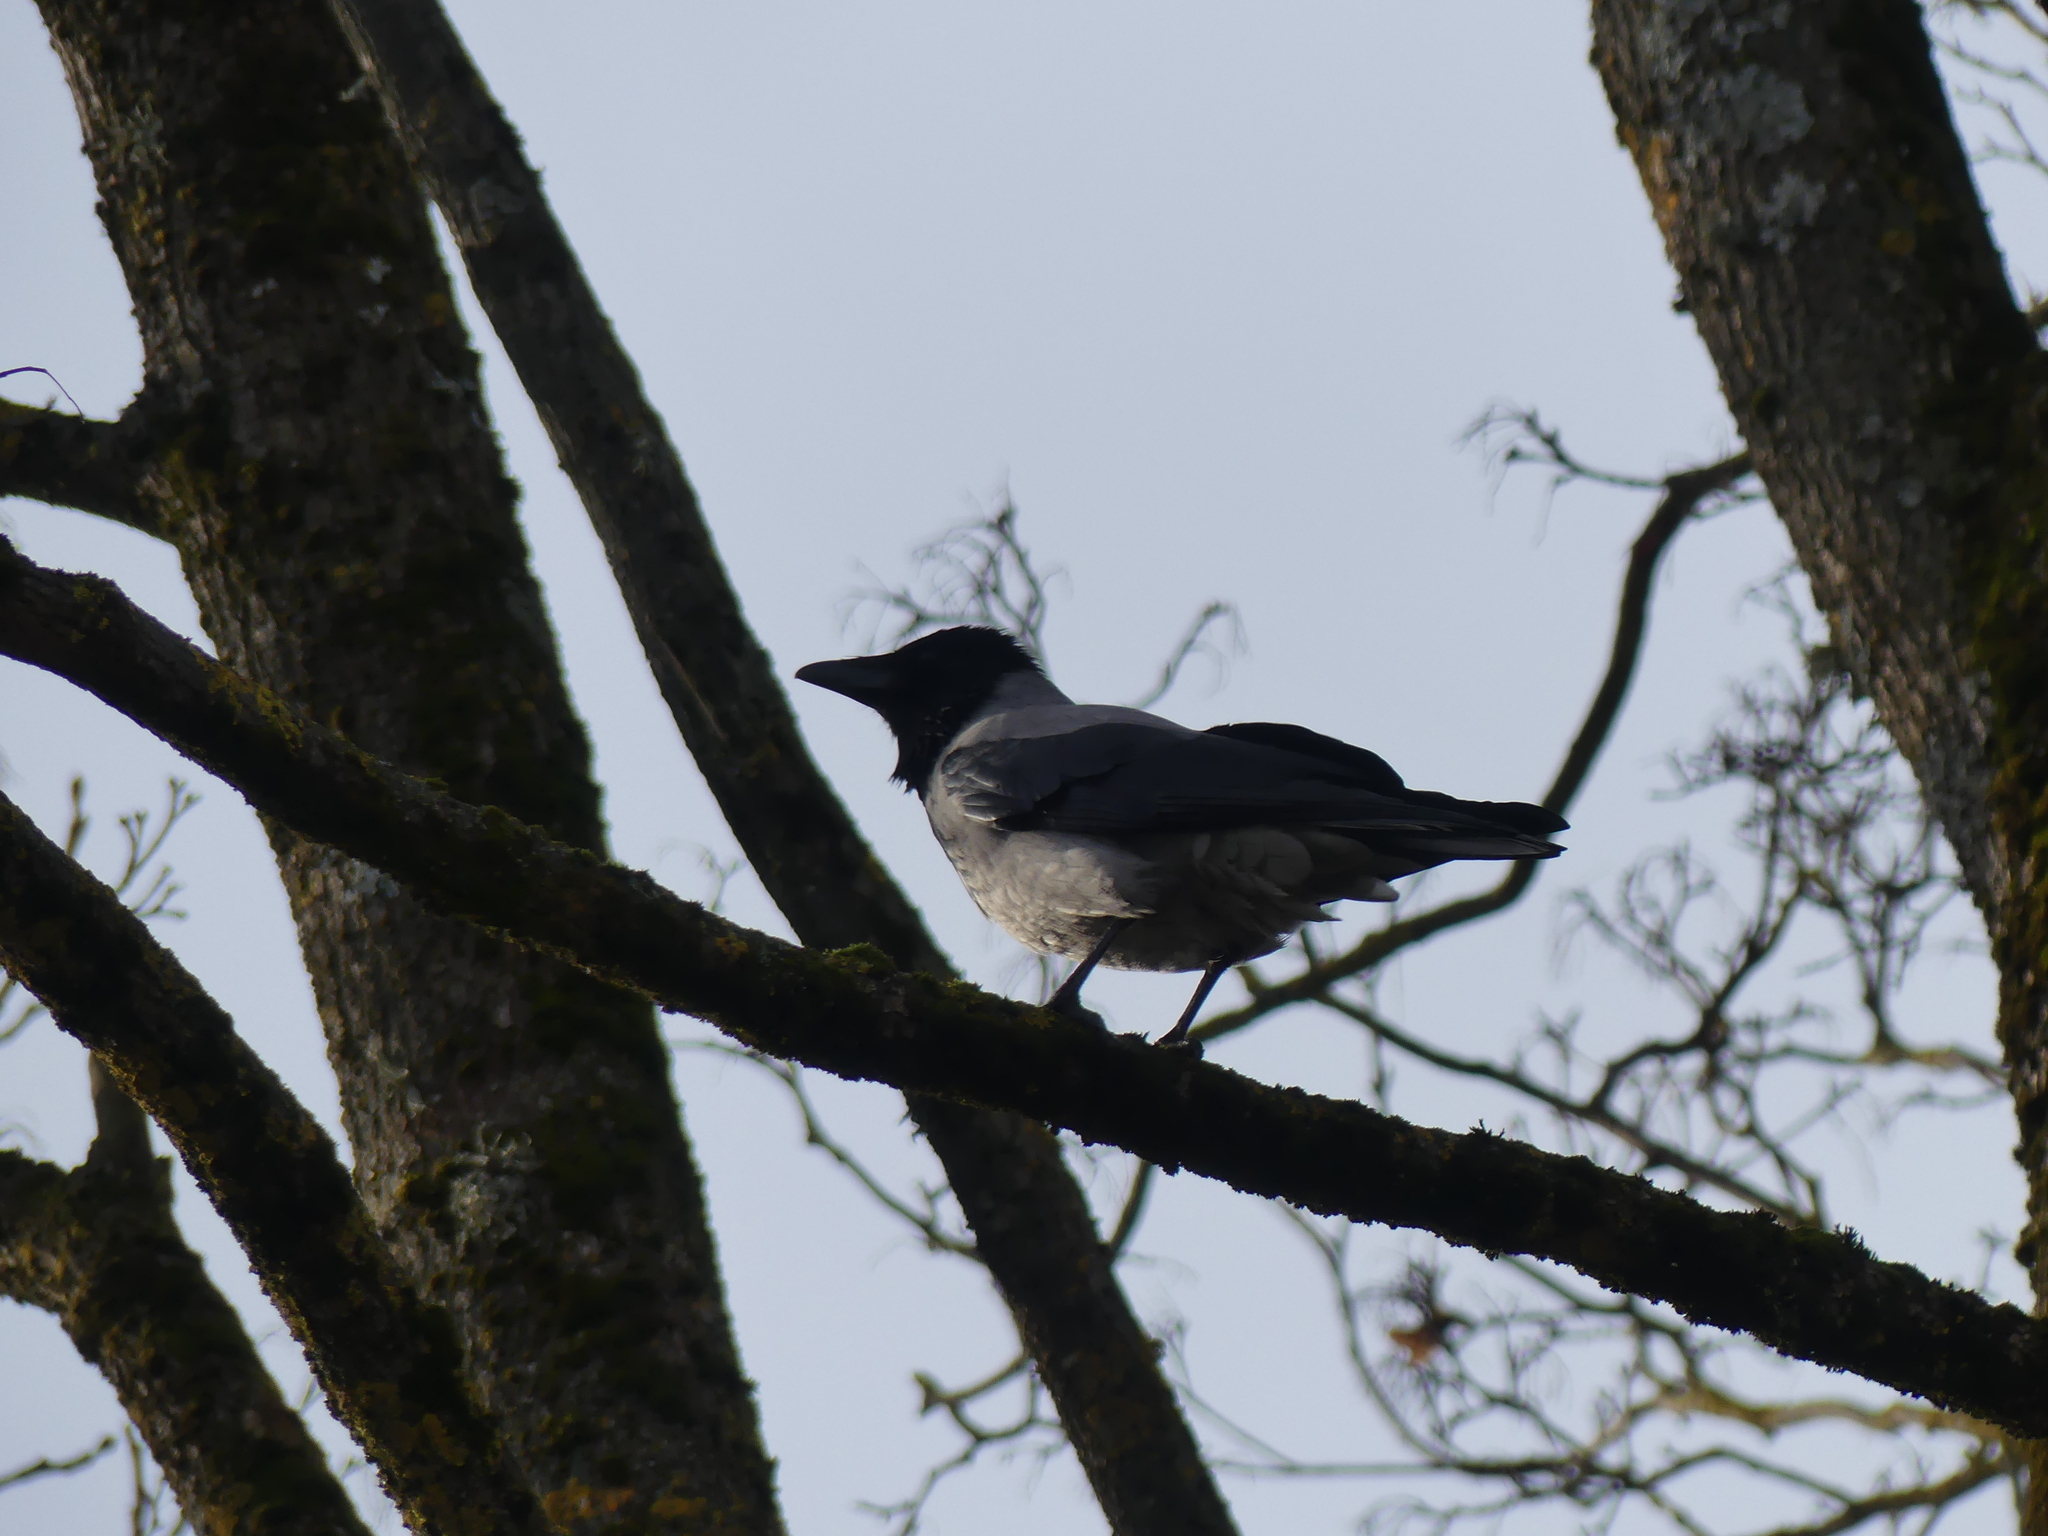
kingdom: Animalia
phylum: Chordata
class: Aves
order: Passeriformes
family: Corvidae
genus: Corvus
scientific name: Corvus cornix
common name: Hooded crow
